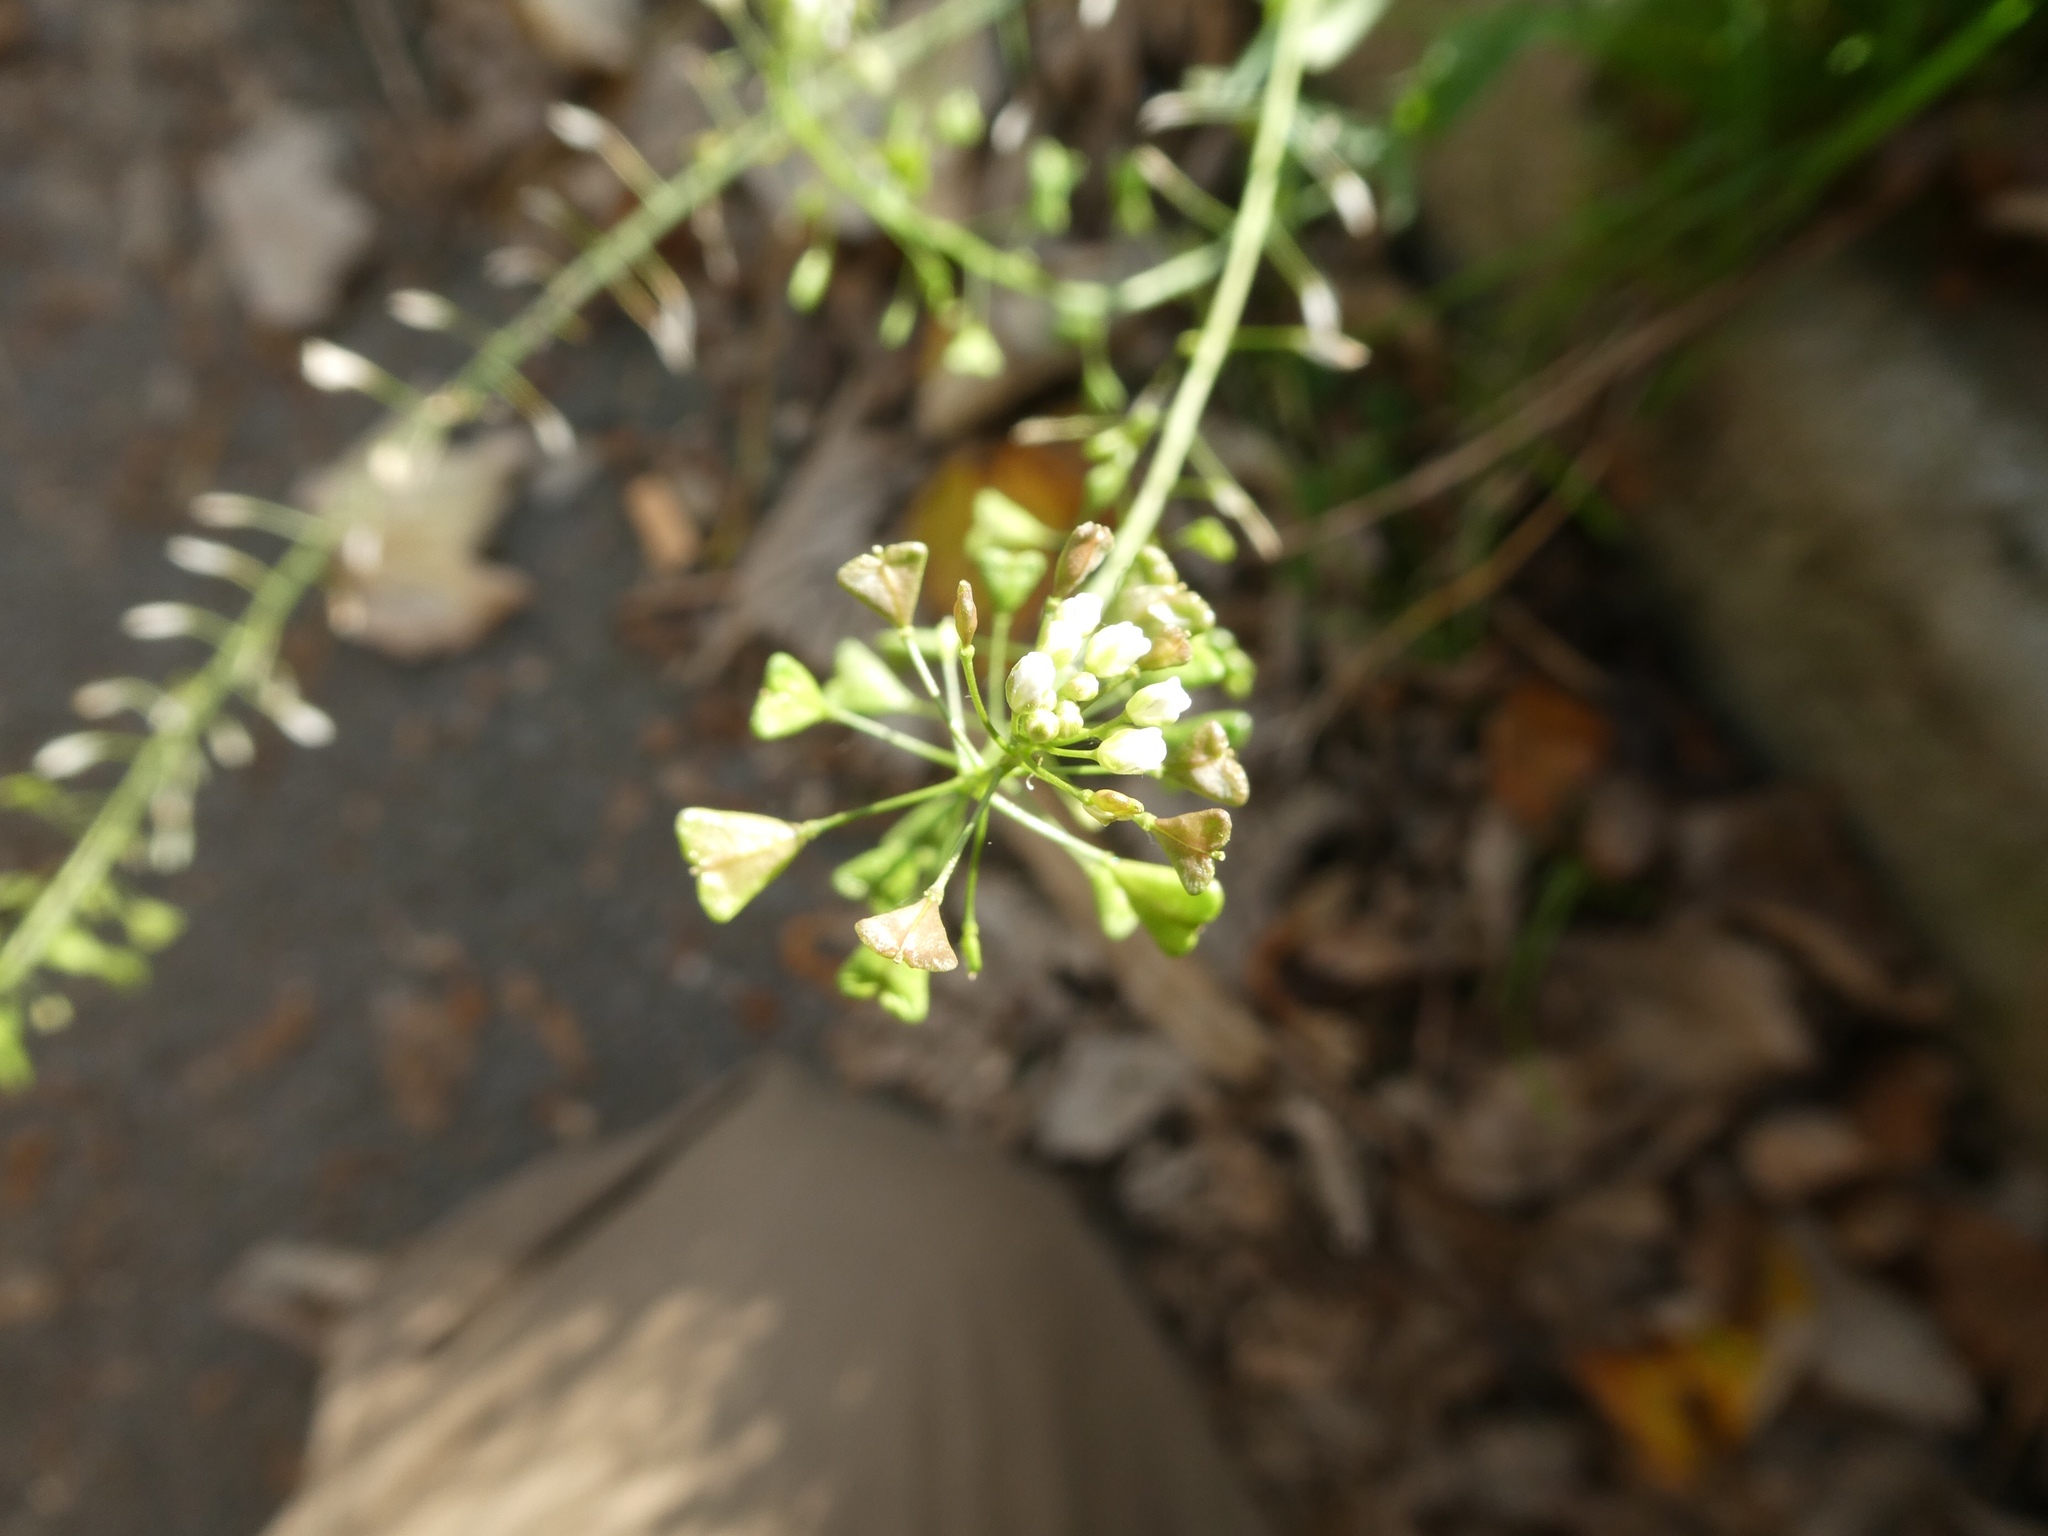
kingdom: Plantae
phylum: Tracheophyta
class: Magnoliopsida
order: Brassicales
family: Brassicaceae
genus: Capsella
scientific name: Capsella bursa-pastoris
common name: Shepherd's purse
